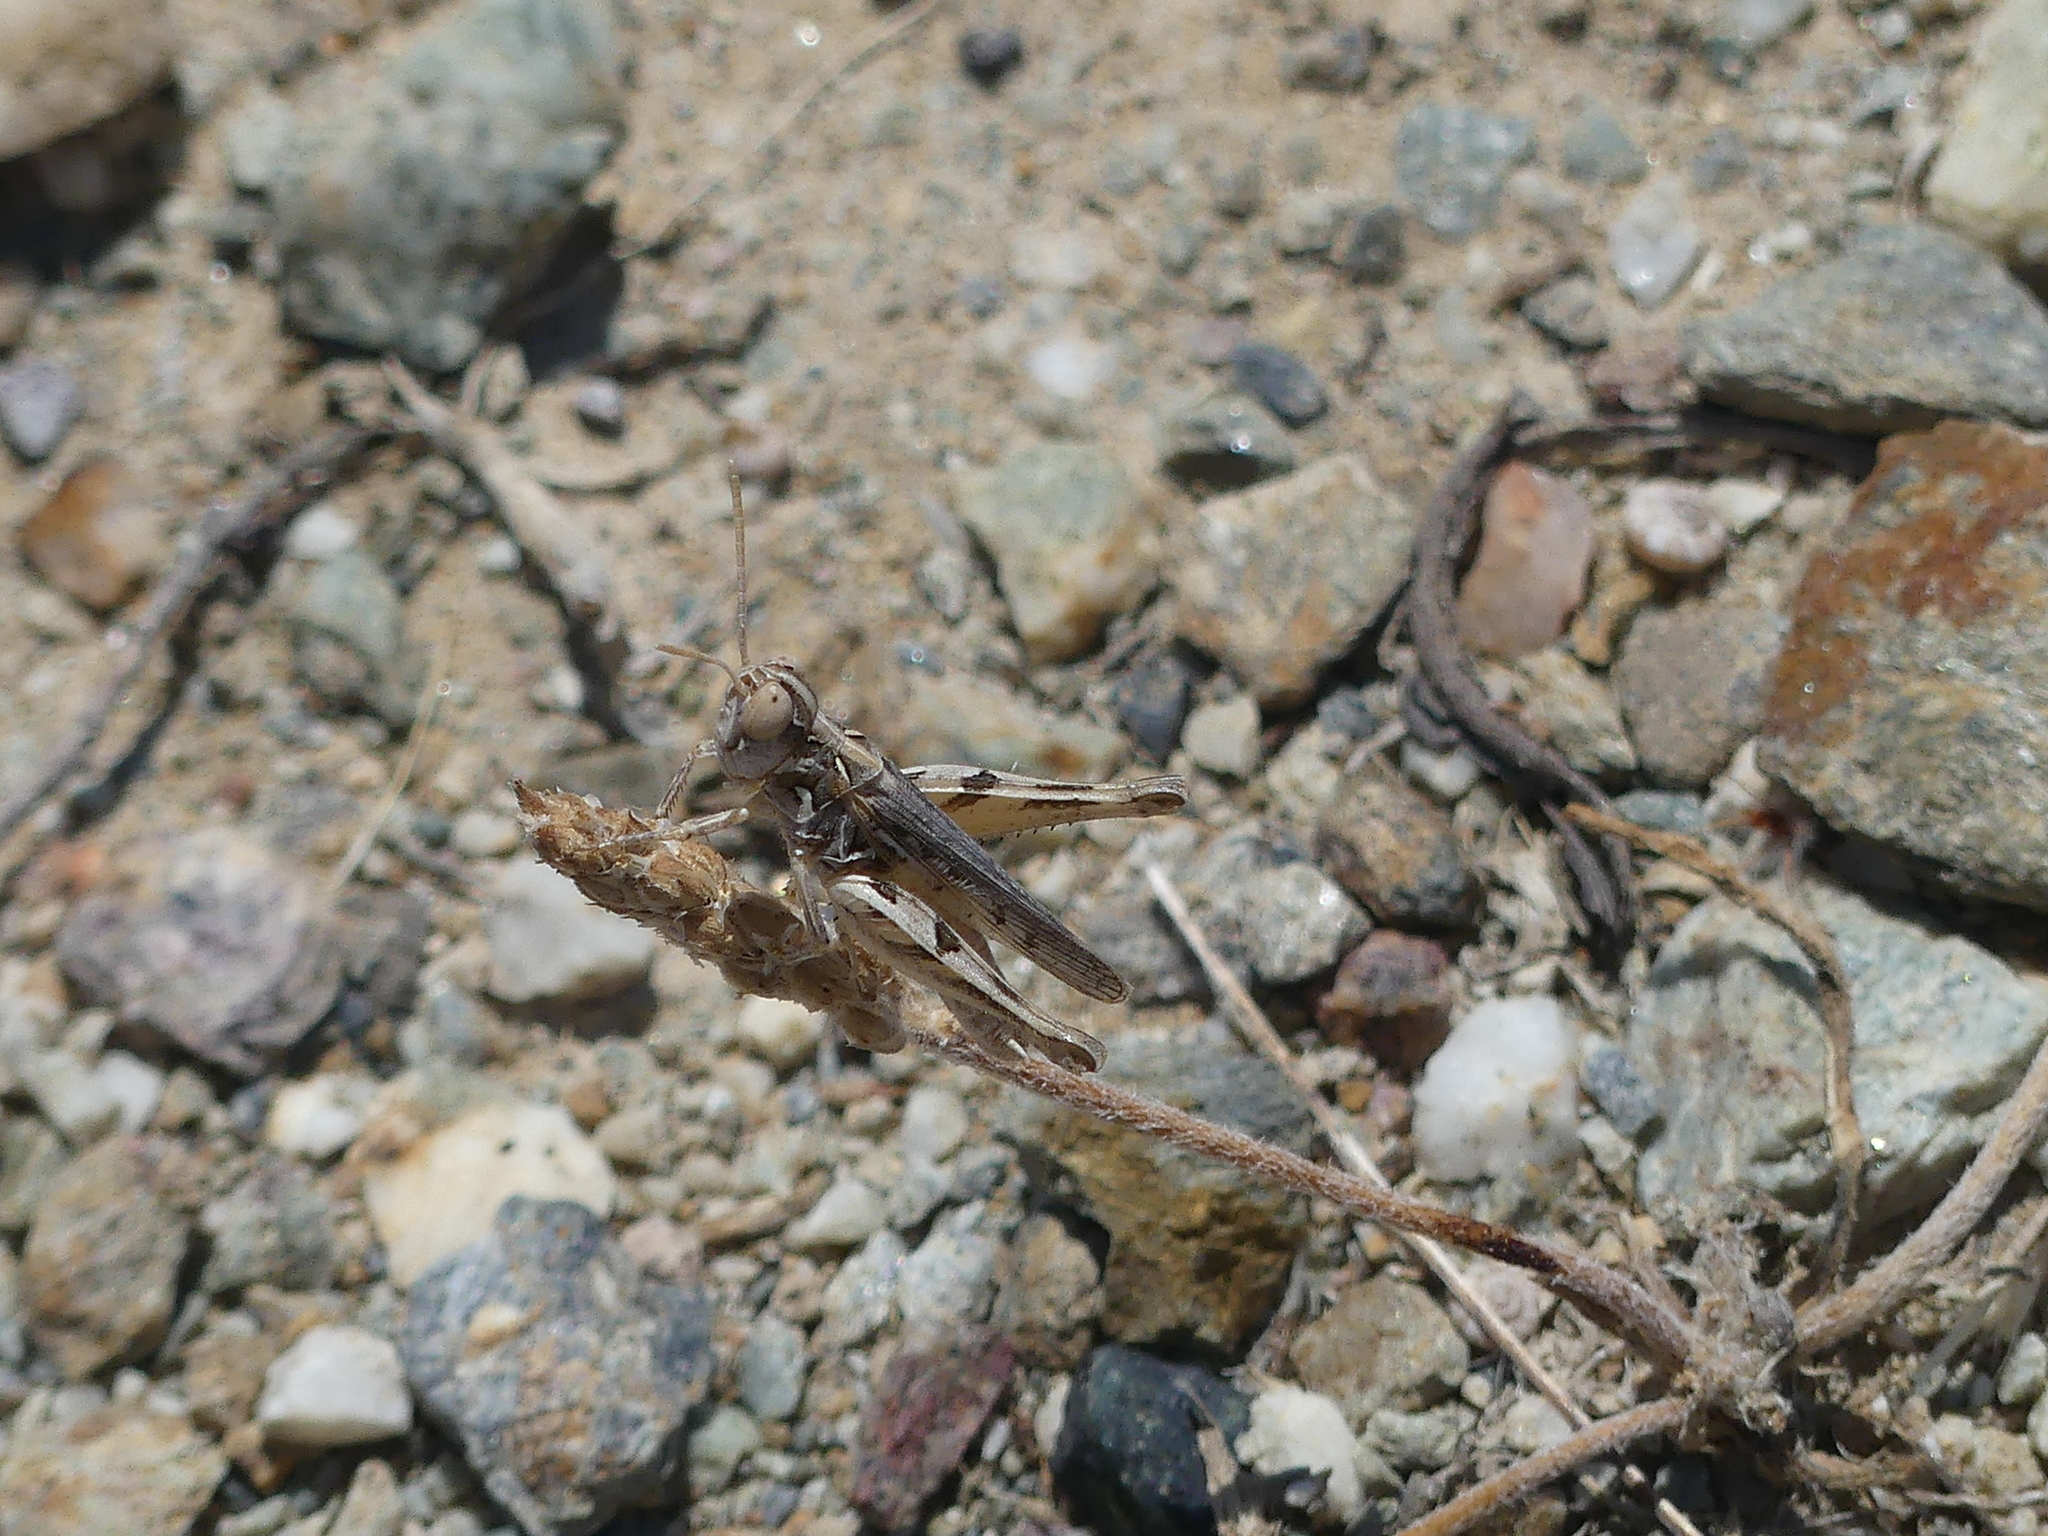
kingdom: Animalia
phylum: Arthropoda
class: Insecta
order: Orthoptera
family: Acrididae
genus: Dociostaurus
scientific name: Dociostaurus jagoi
